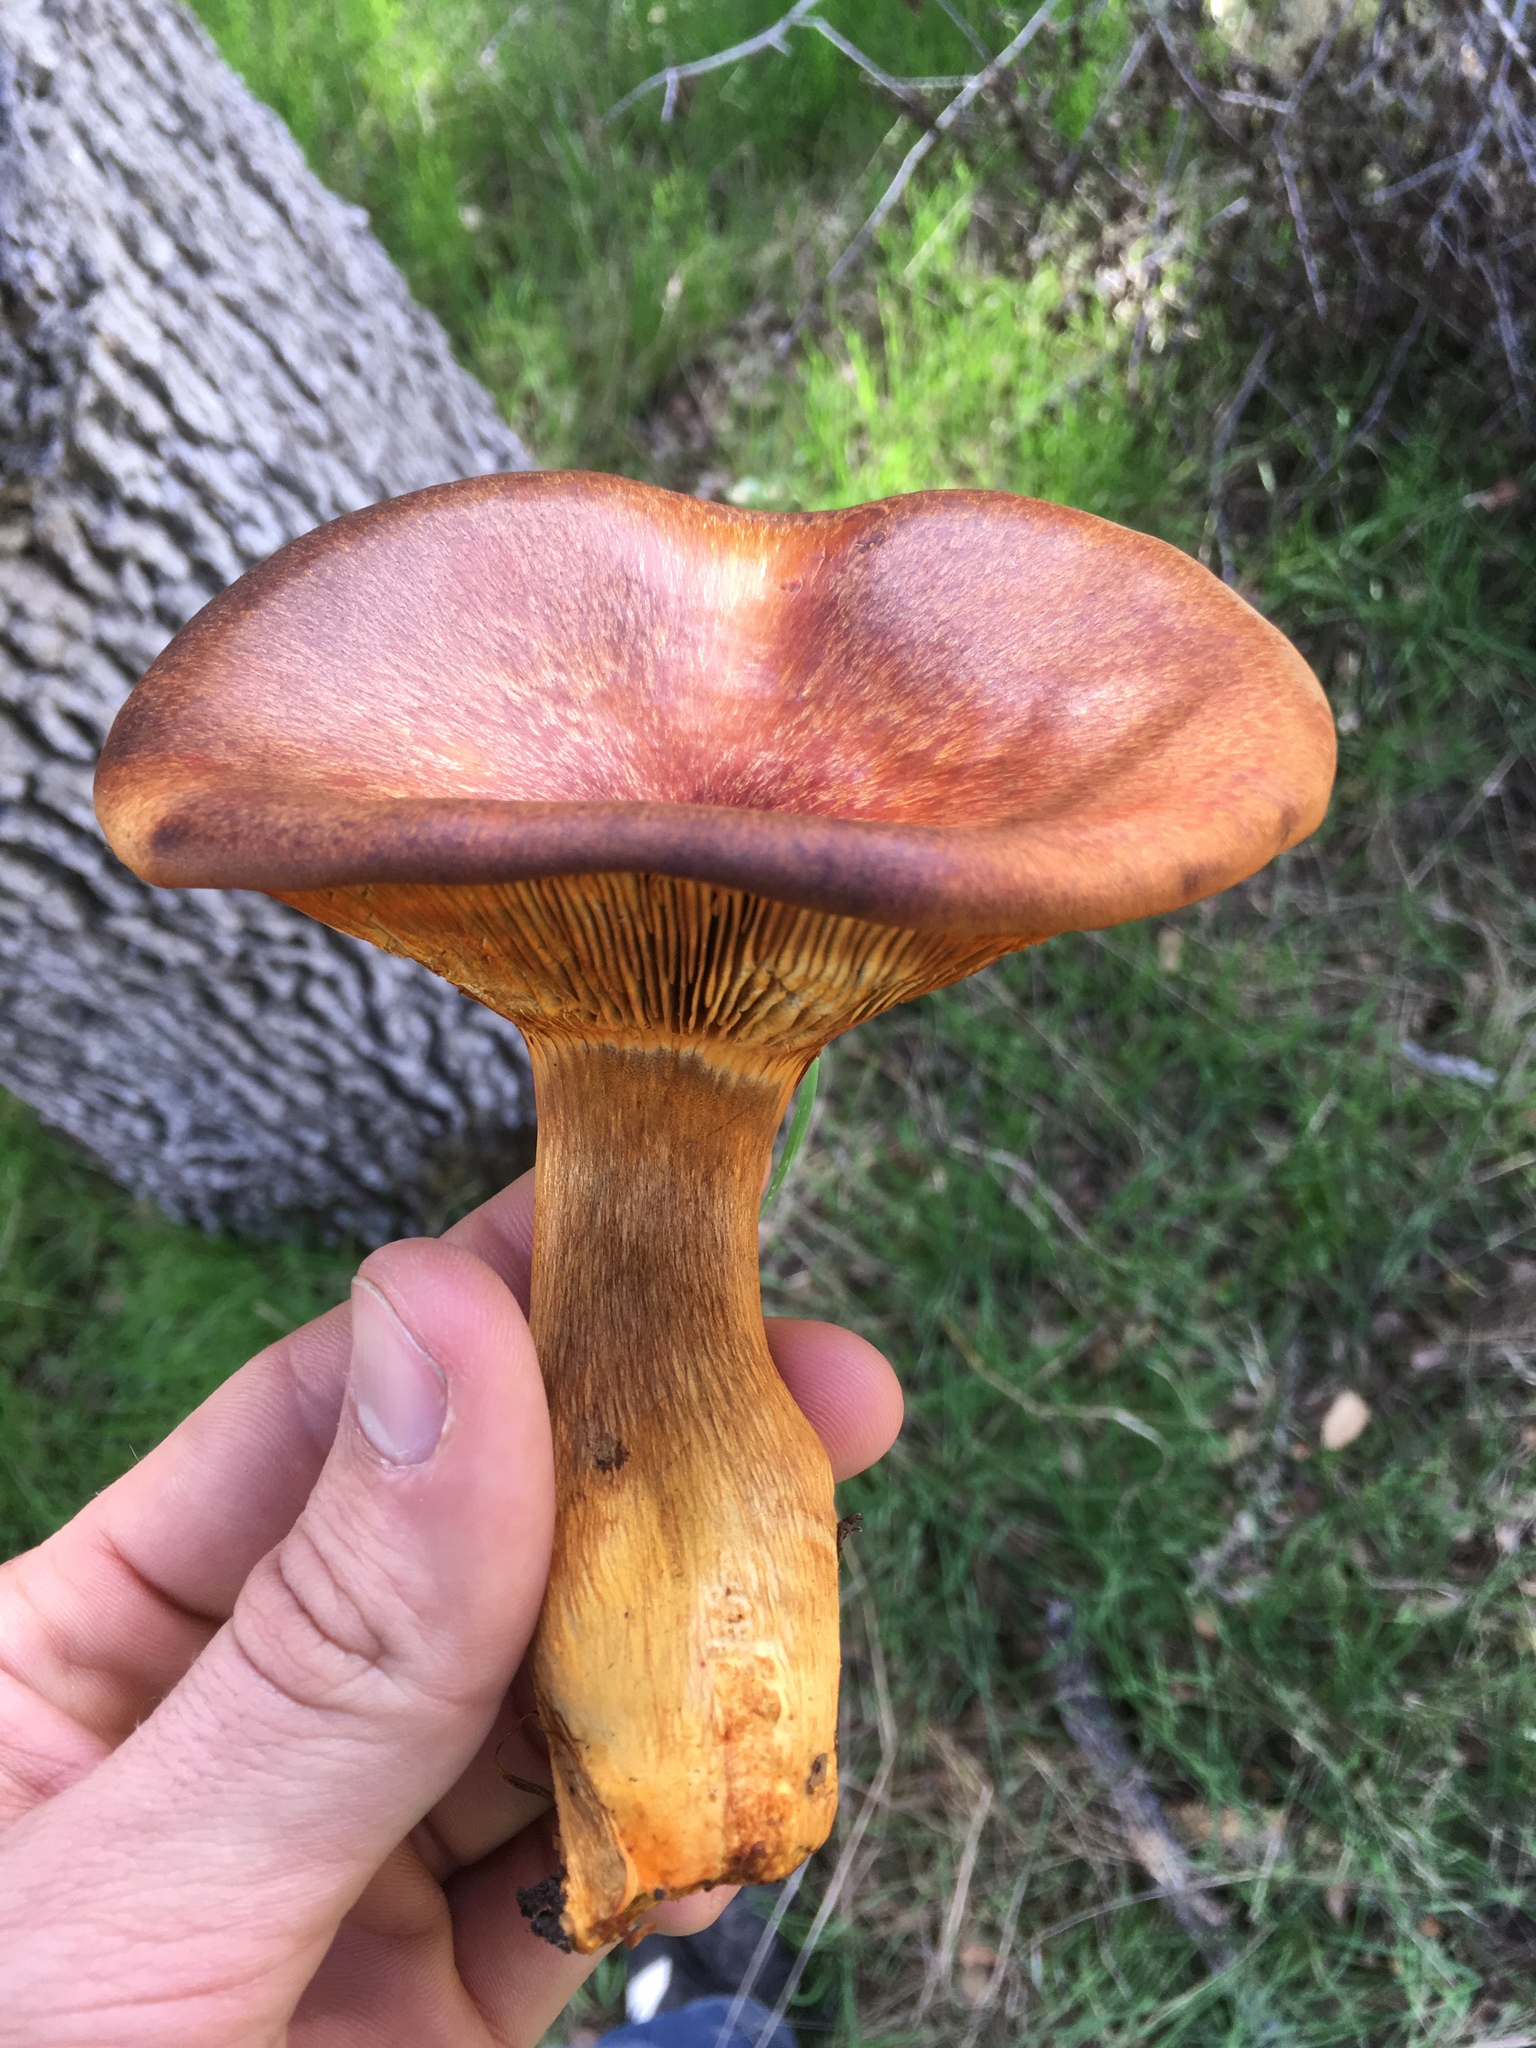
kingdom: Fungi
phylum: Basidiomycota
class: Agaricomycetes
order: Agaricales
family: Omphalotaceae
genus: Omphalotus
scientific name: Omphalotus olivascens
